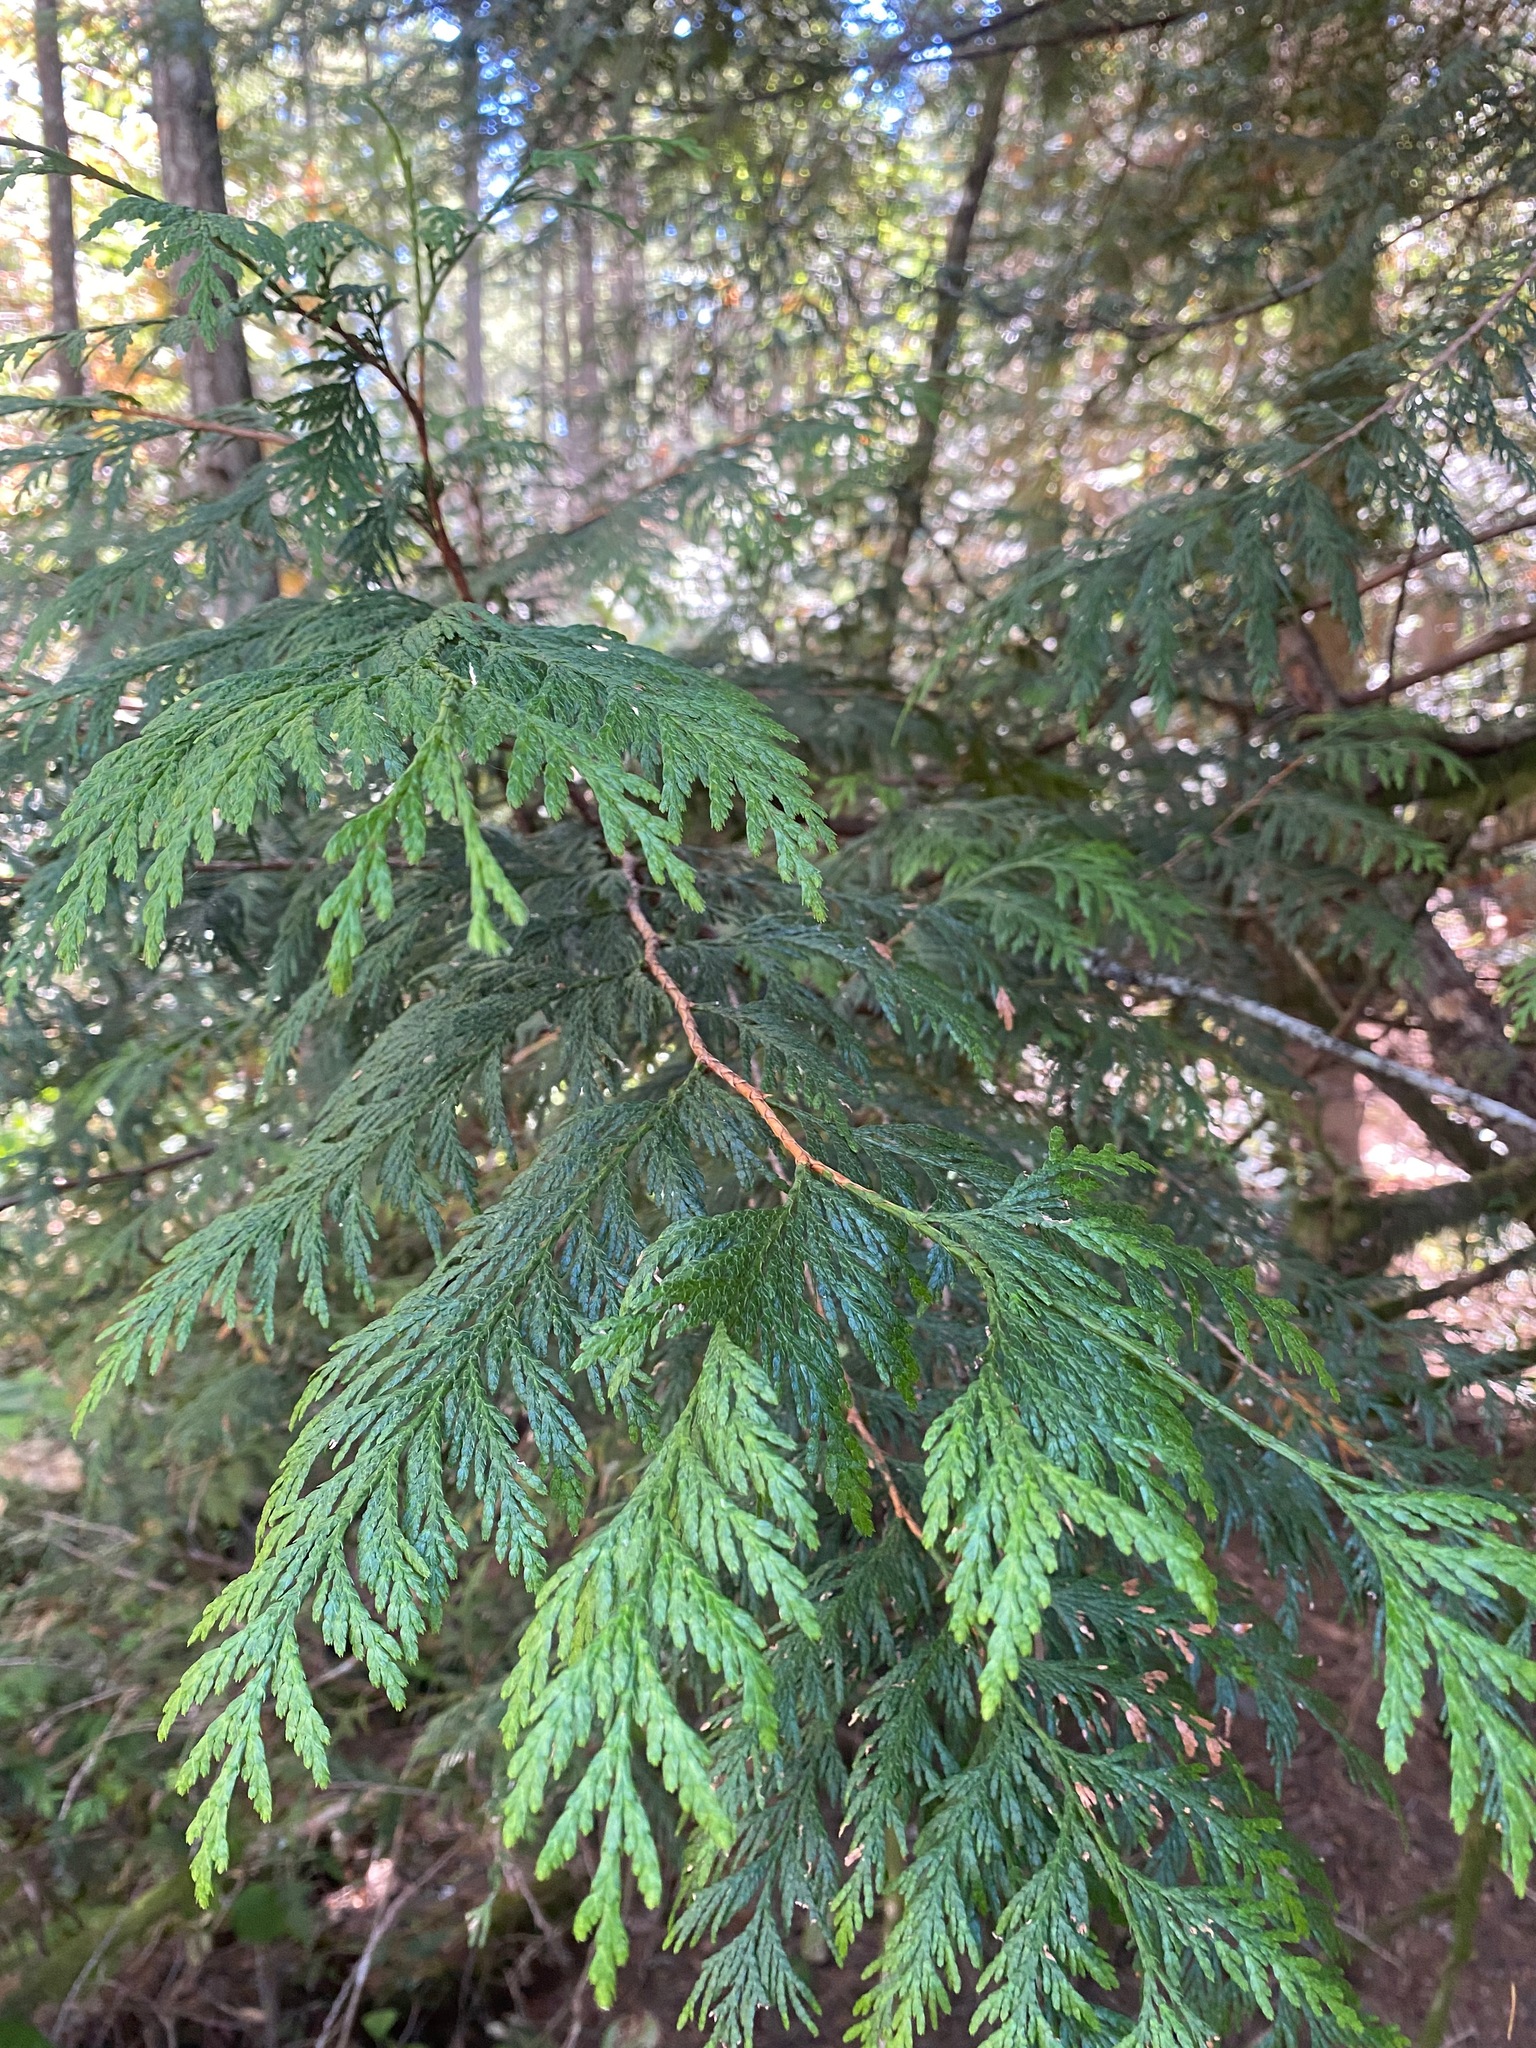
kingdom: Plantae
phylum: Tracheophyta
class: Pinopsida
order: Pinales
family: Cupressaceae
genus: Thuja
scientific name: Thuja plicata
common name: Western red-cedar
